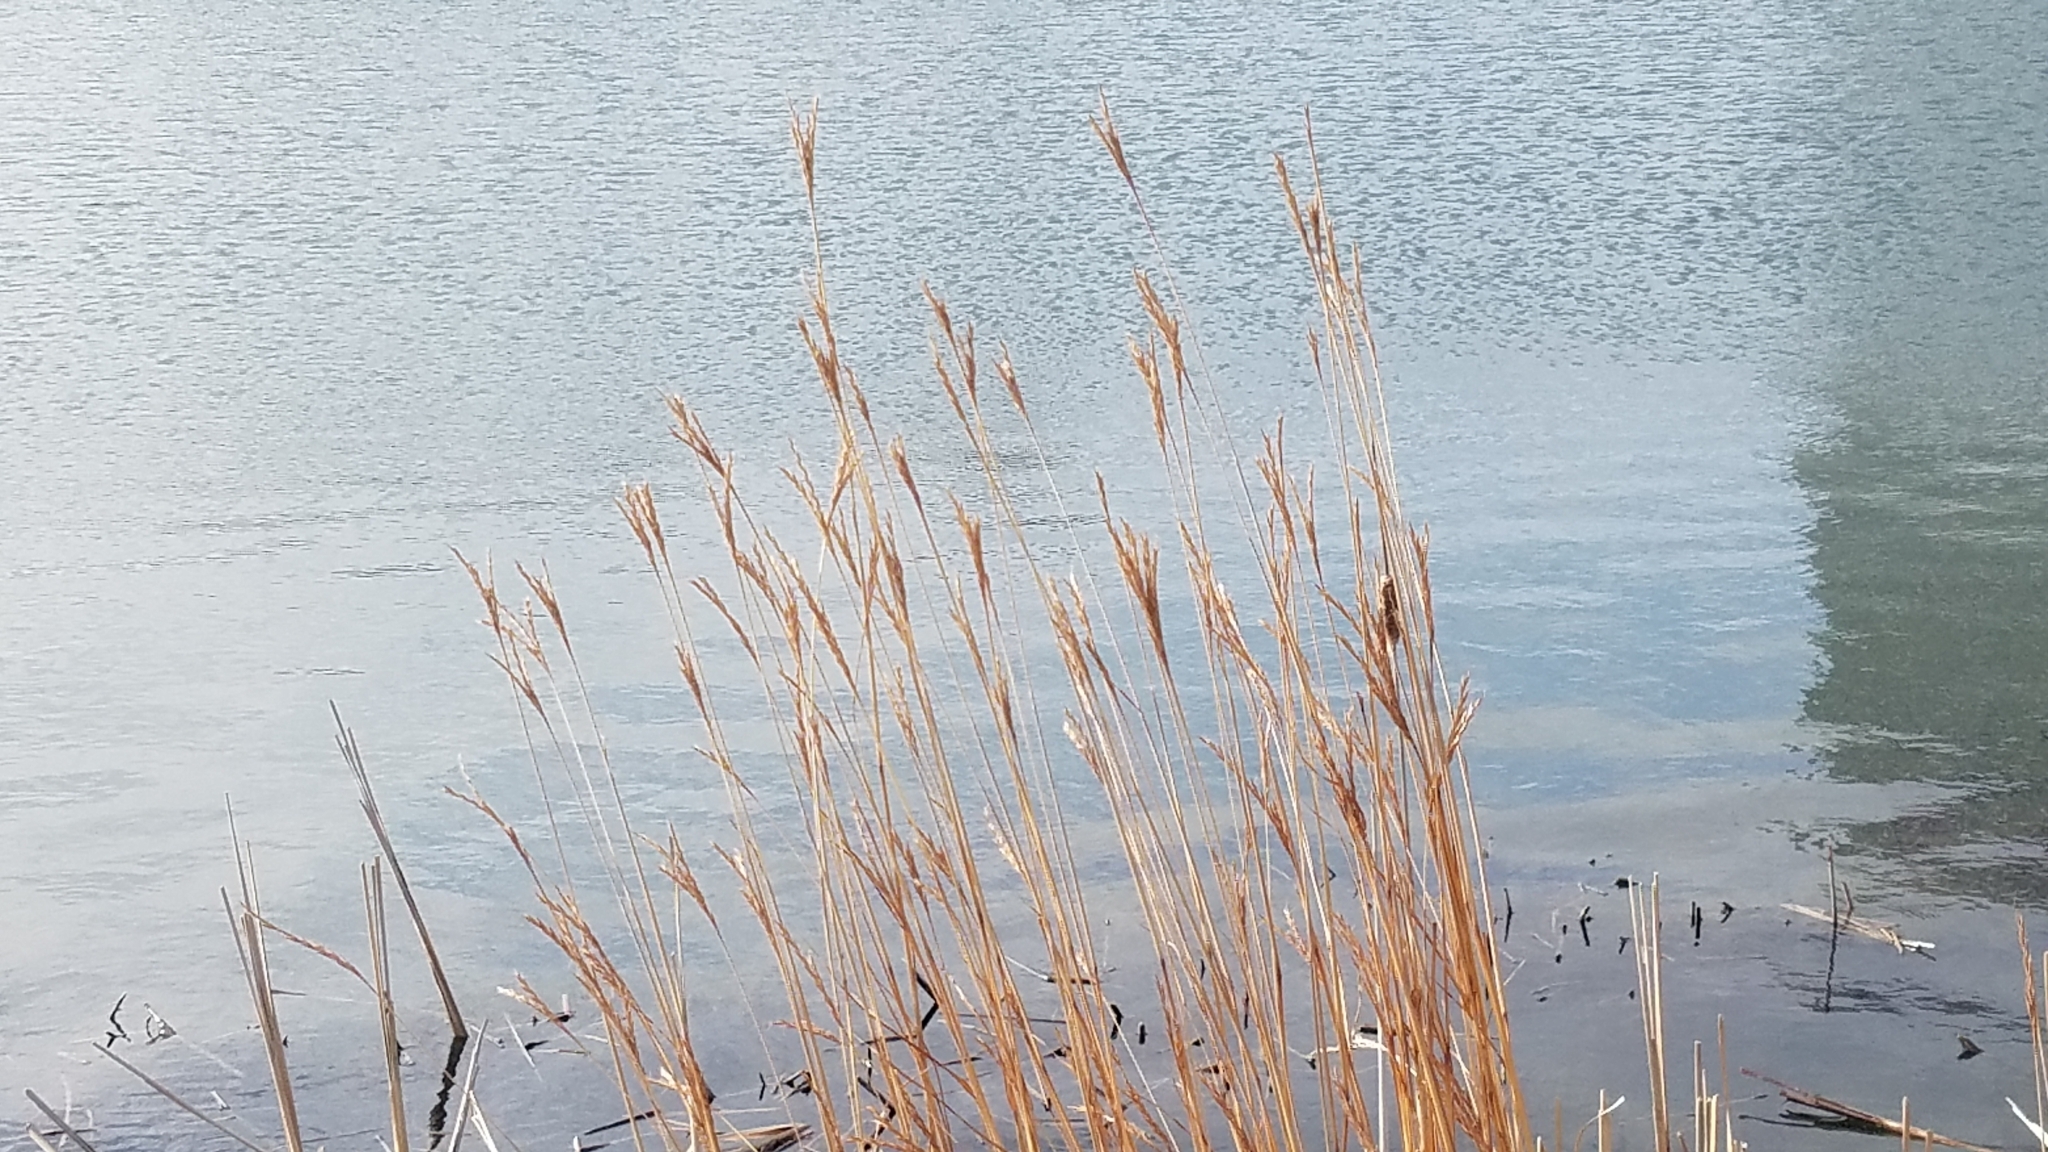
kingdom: Plantae
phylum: Tracheophyta
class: Liliopsida
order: Poales
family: Poaceae
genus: Andropogon
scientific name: Andropogon gerardi
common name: Big bluestem
